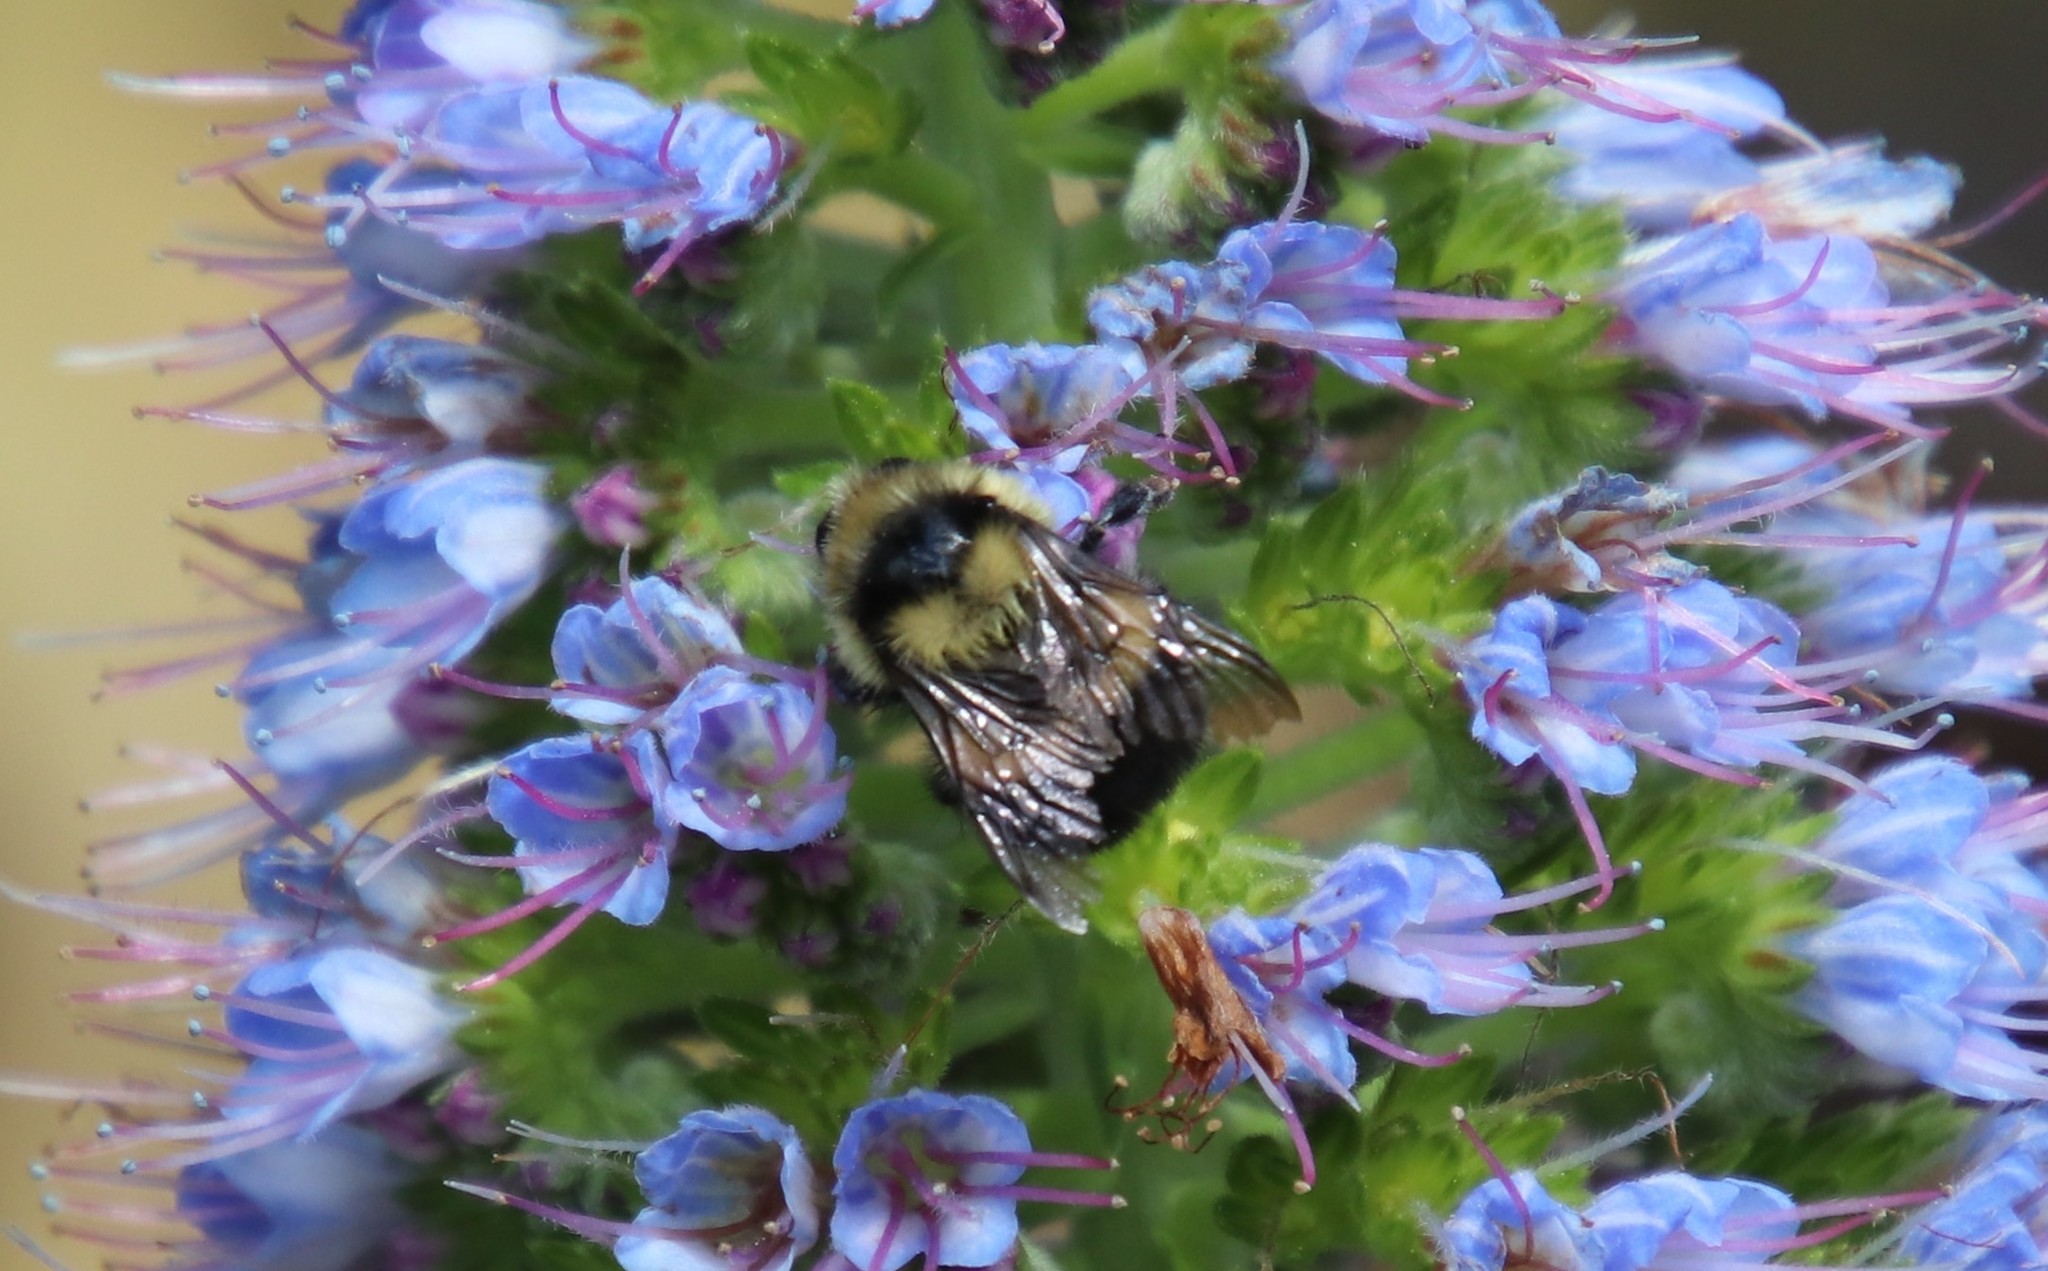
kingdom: Animalia
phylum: Arthropoda
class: Insecta
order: Hymenoptera
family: Apidae
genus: Bombus
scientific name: Bombus melanopygus
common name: Black tail bumble bee
